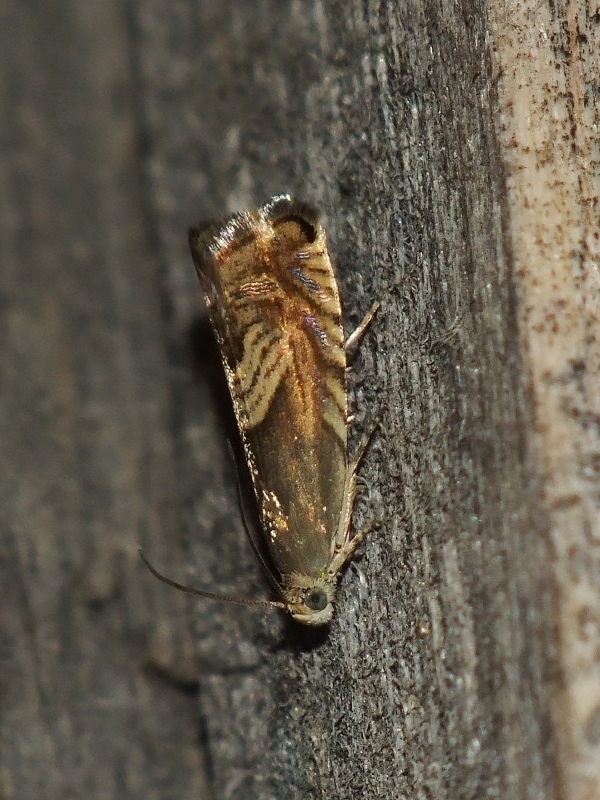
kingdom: Animalia
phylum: Arthropoda
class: Insecta
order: Lepidoptera
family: Tortricidae
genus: Grapholita
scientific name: Grapholita delineana
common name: Eurasian hemp moth
